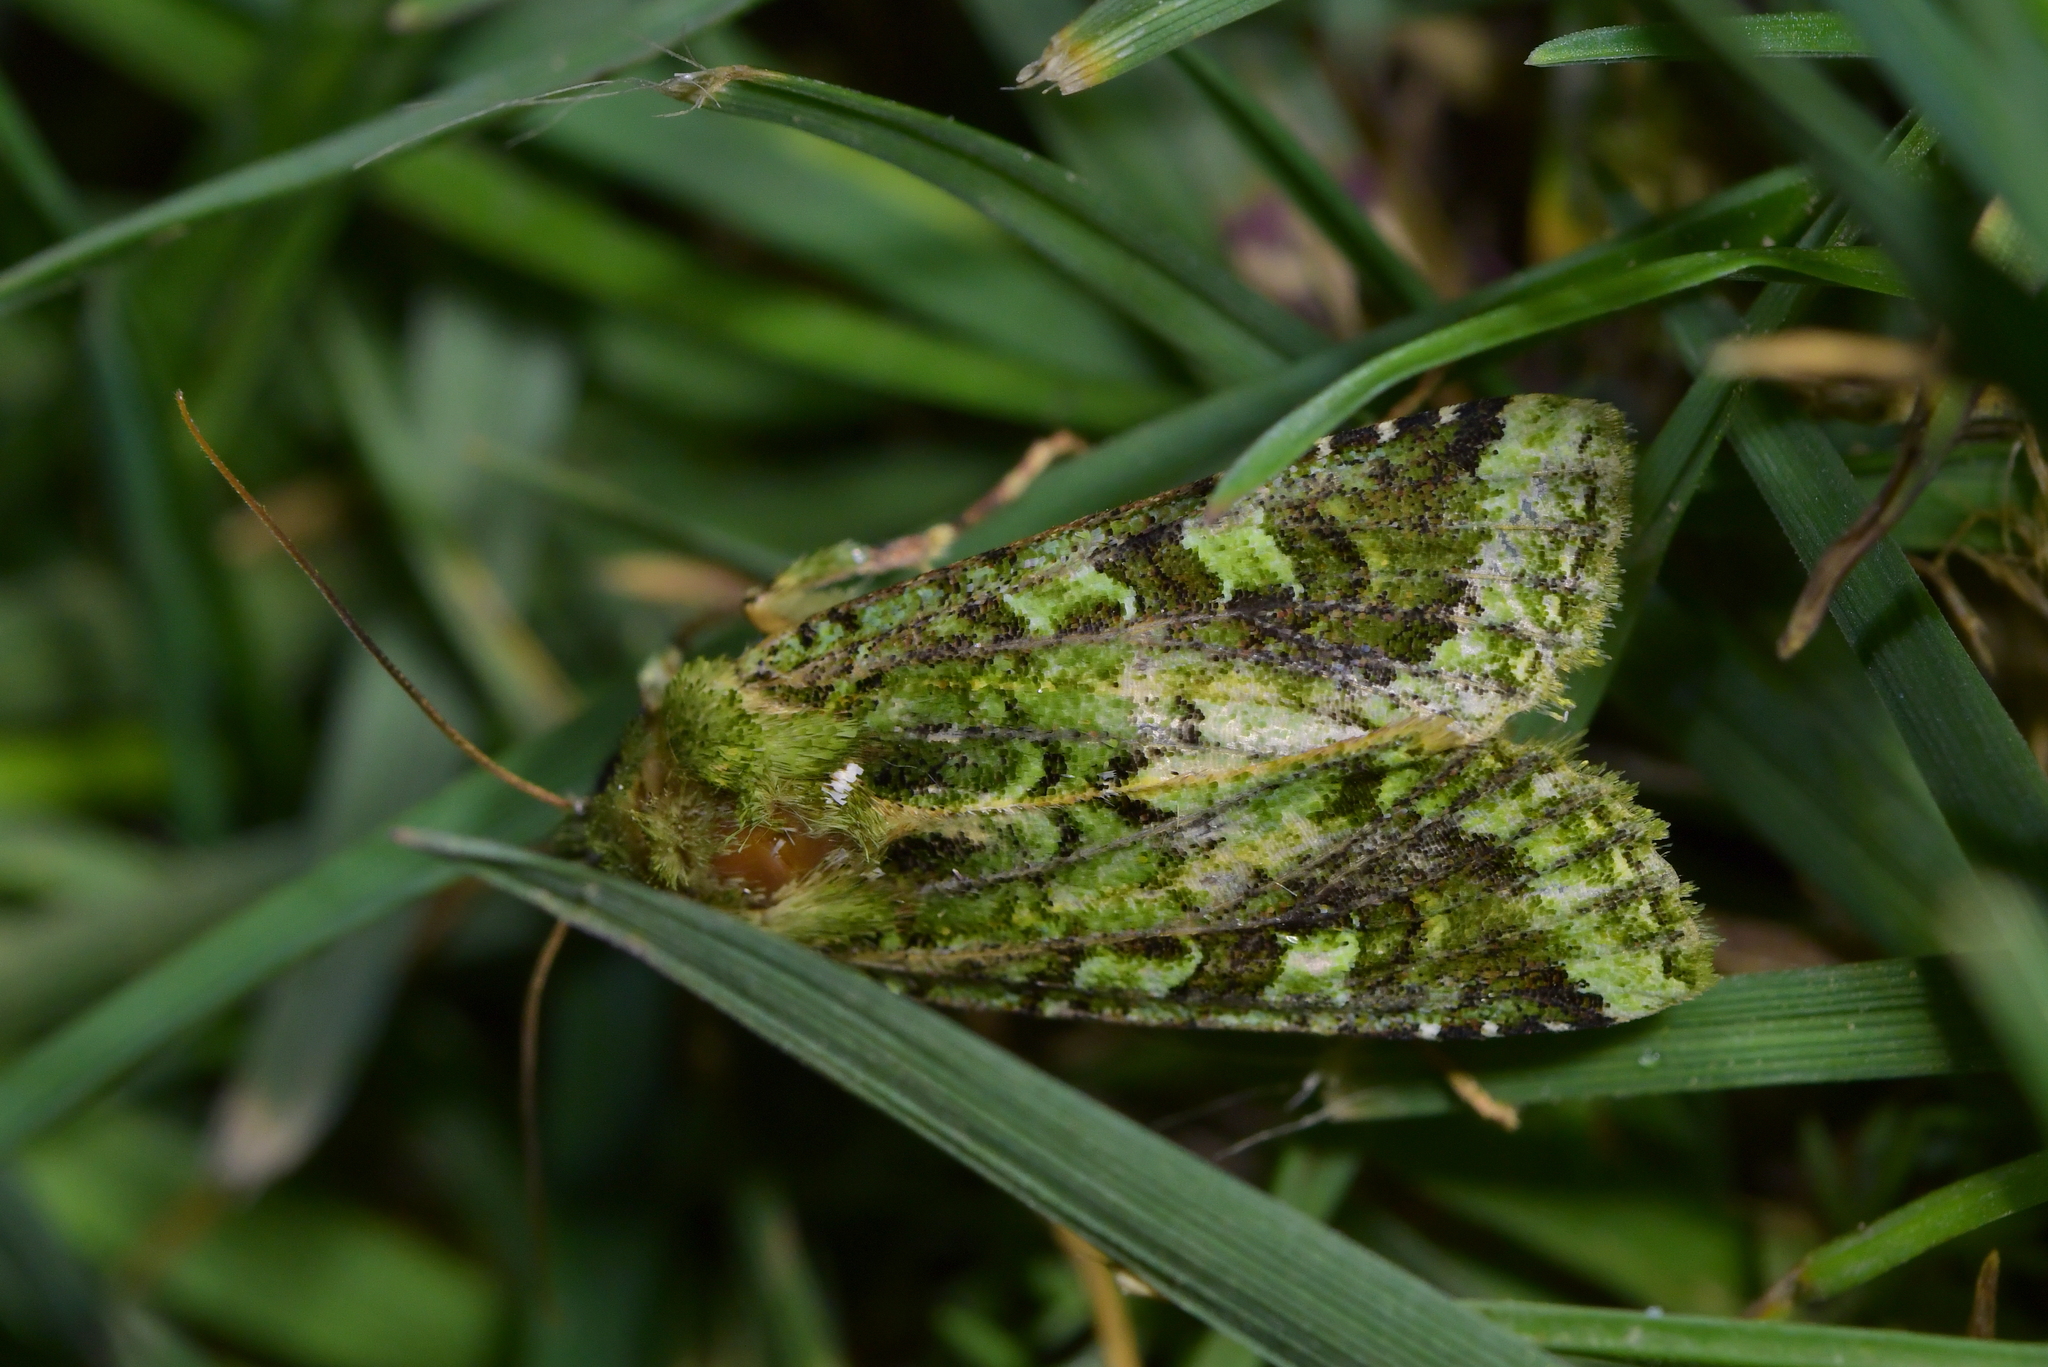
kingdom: Animalia
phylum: Arthropoda
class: Insecta
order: Lepidoptera
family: Noctuidae
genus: Feredayia
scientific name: Feredayia grammosa
